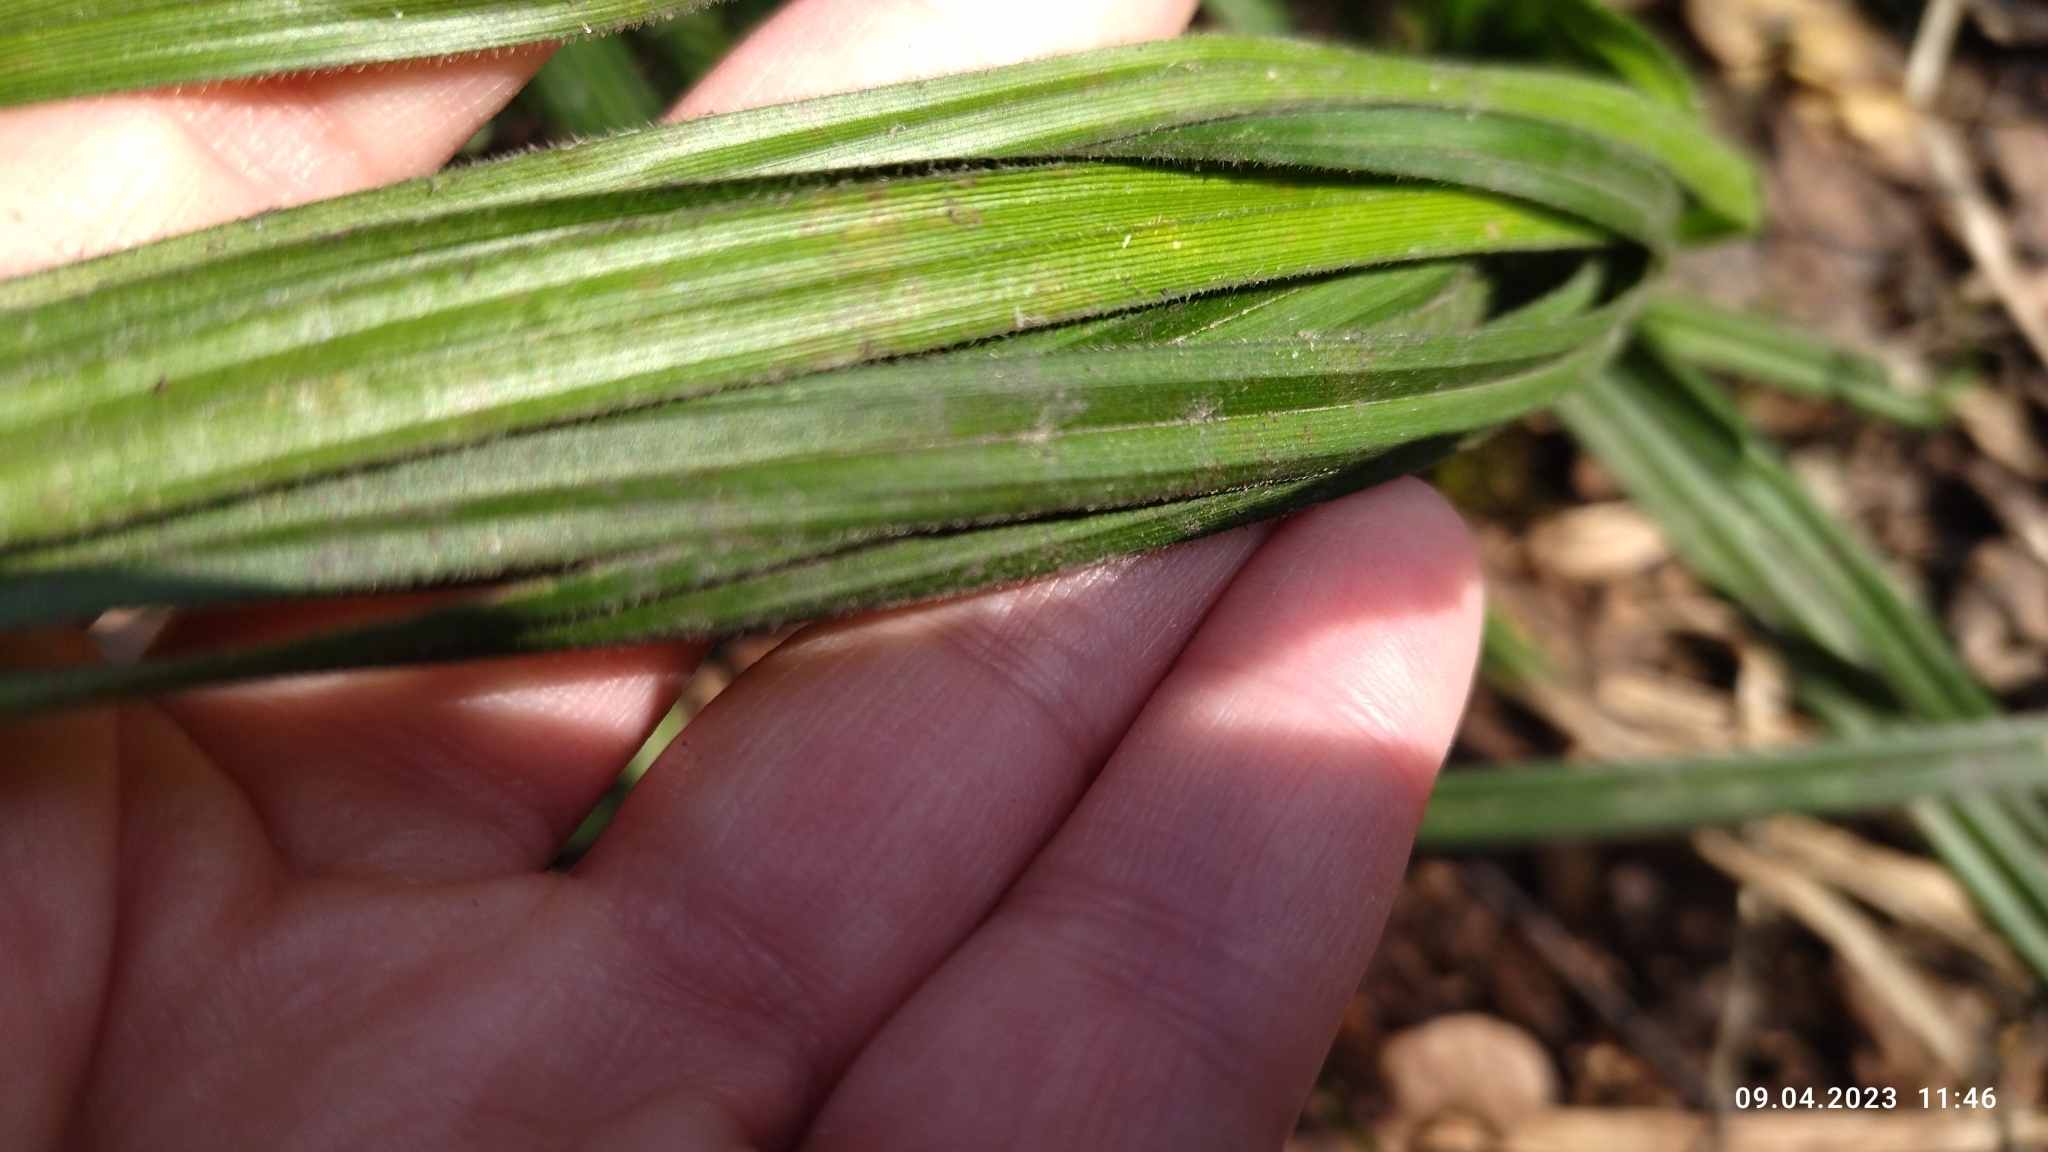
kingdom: Plantae
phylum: Tracheophyta
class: Liliopsida
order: Poales
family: Cyperaceae
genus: Carex
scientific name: Carex pilosa
